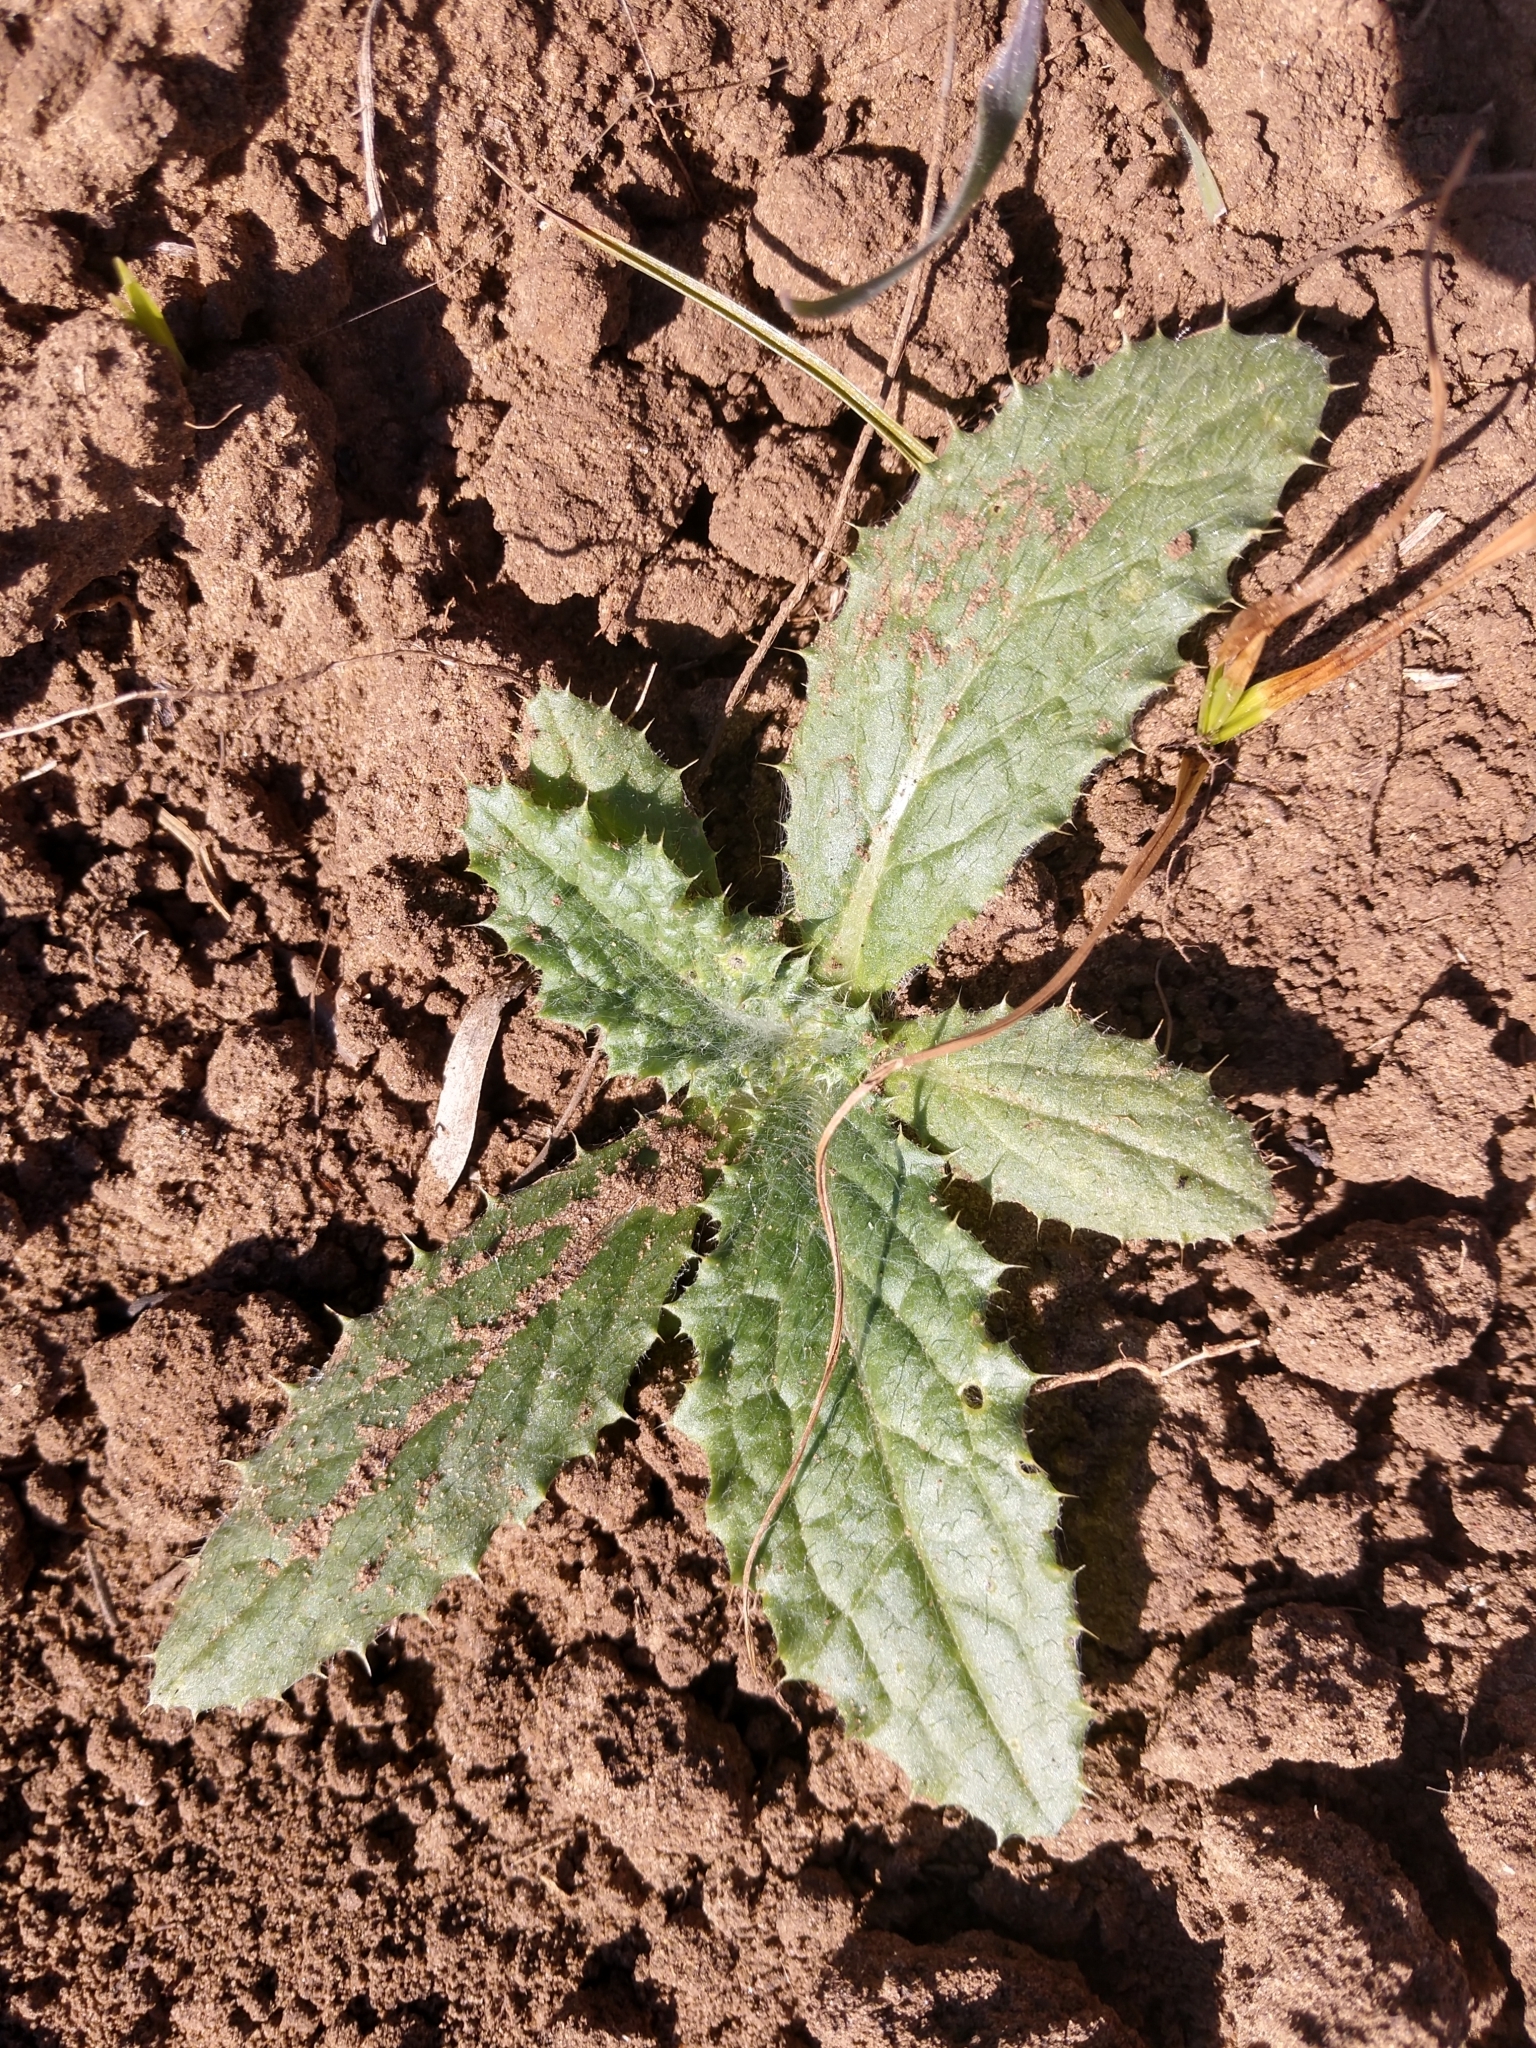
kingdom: Plantae
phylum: Tracheophyta
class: Magnoliopsida
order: Asterales
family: Asteraceae
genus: Cirsium
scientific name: Cirsium texanum
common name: Texas purple thistle
